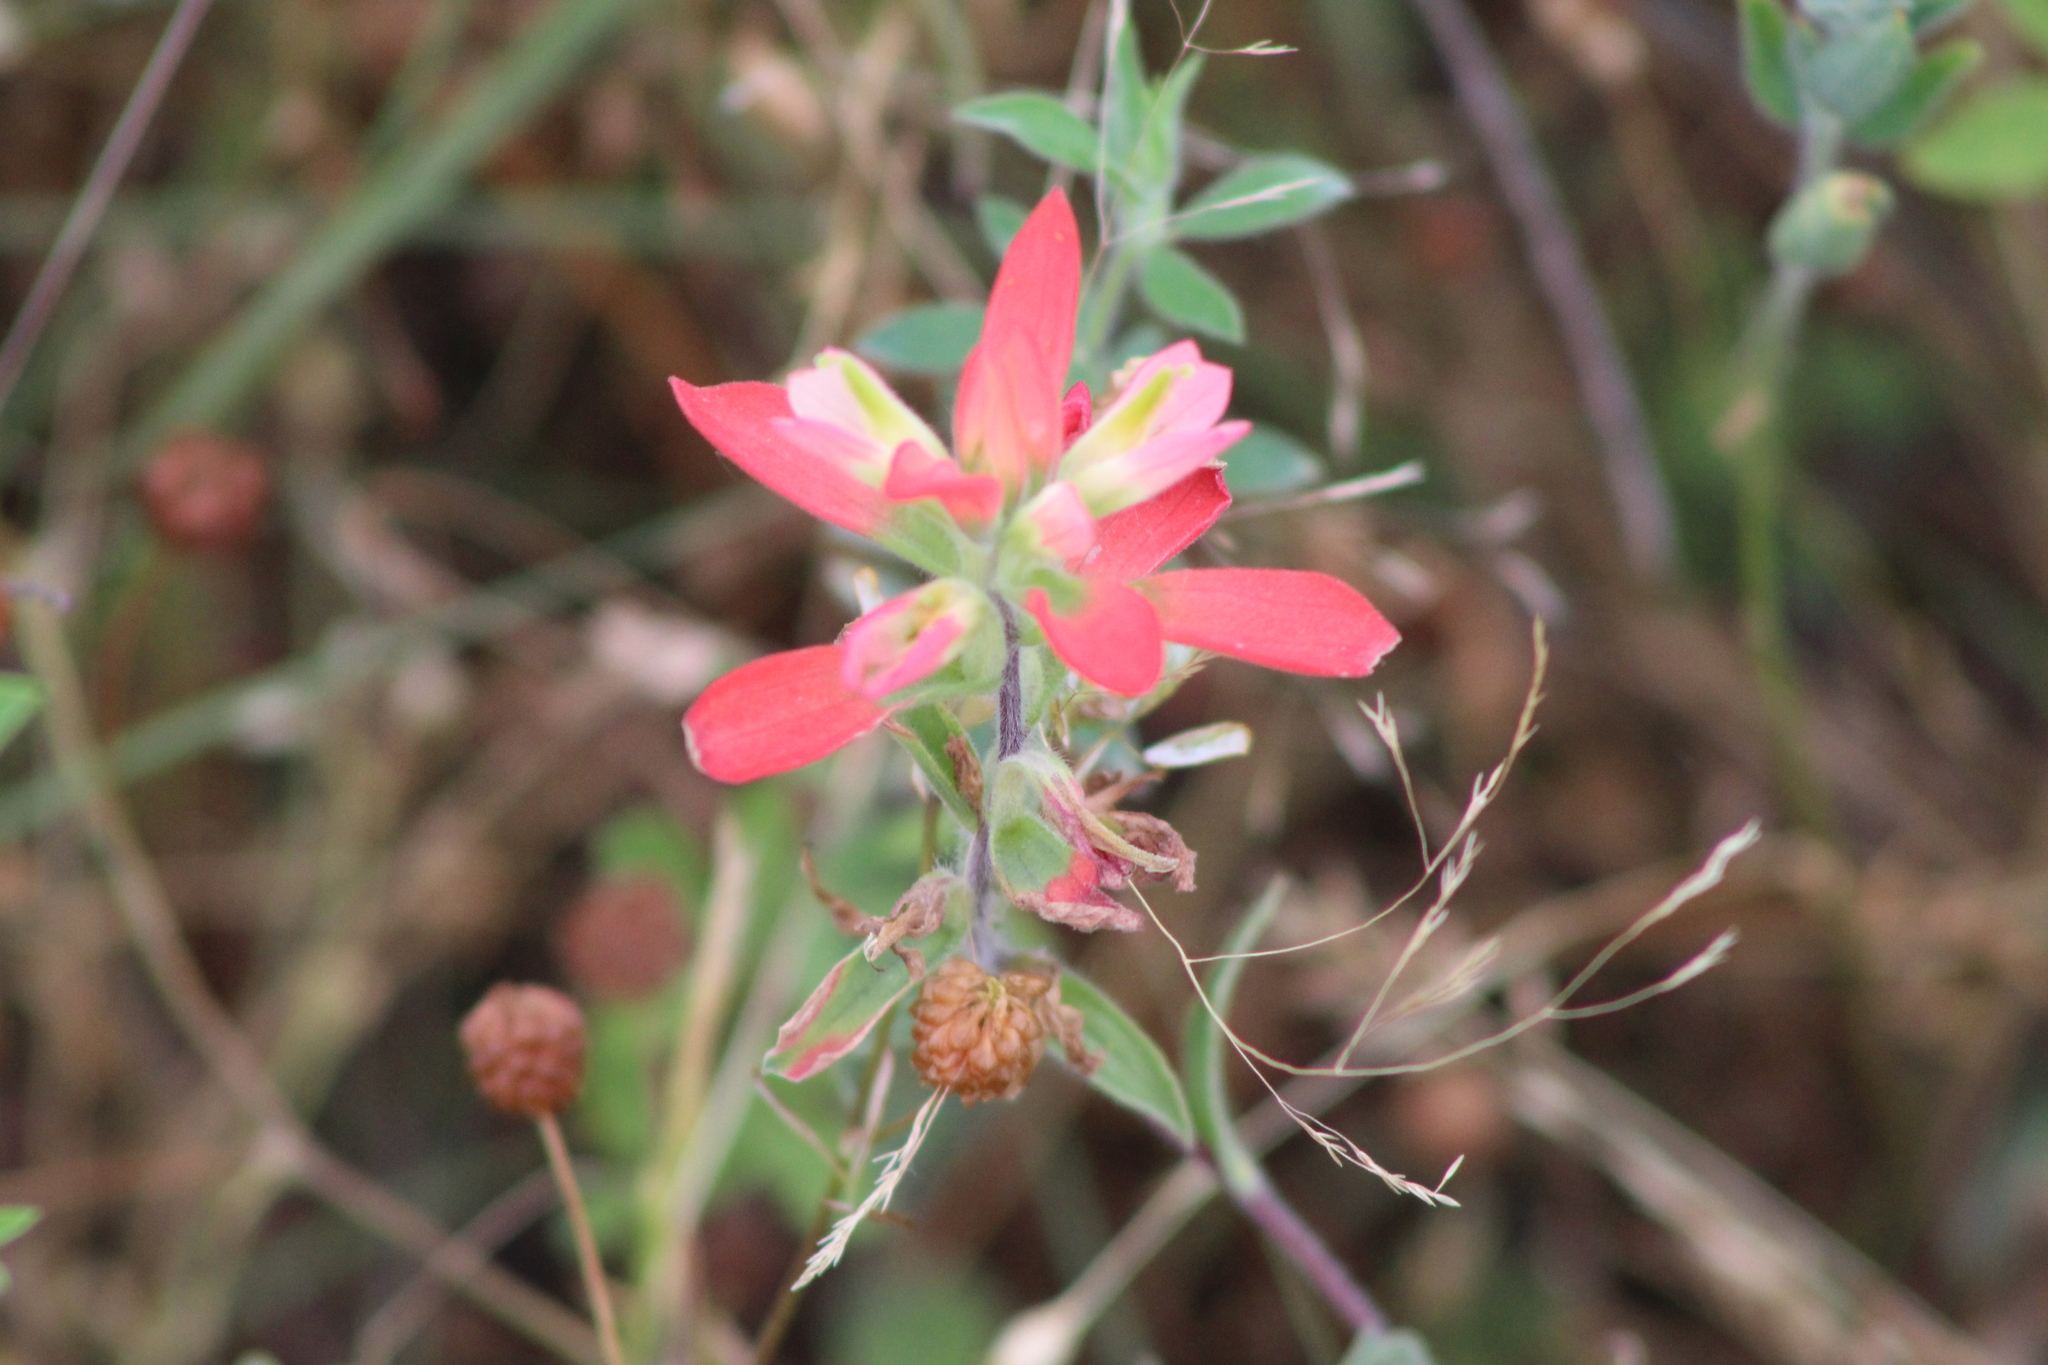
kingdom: Plantae
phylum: Tracheophyta
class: Magnoliopsida
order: Lamiales
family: Orobanchaceae
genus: Castilleja
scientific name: Castilleja indivisa
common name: Texas paintbrush
